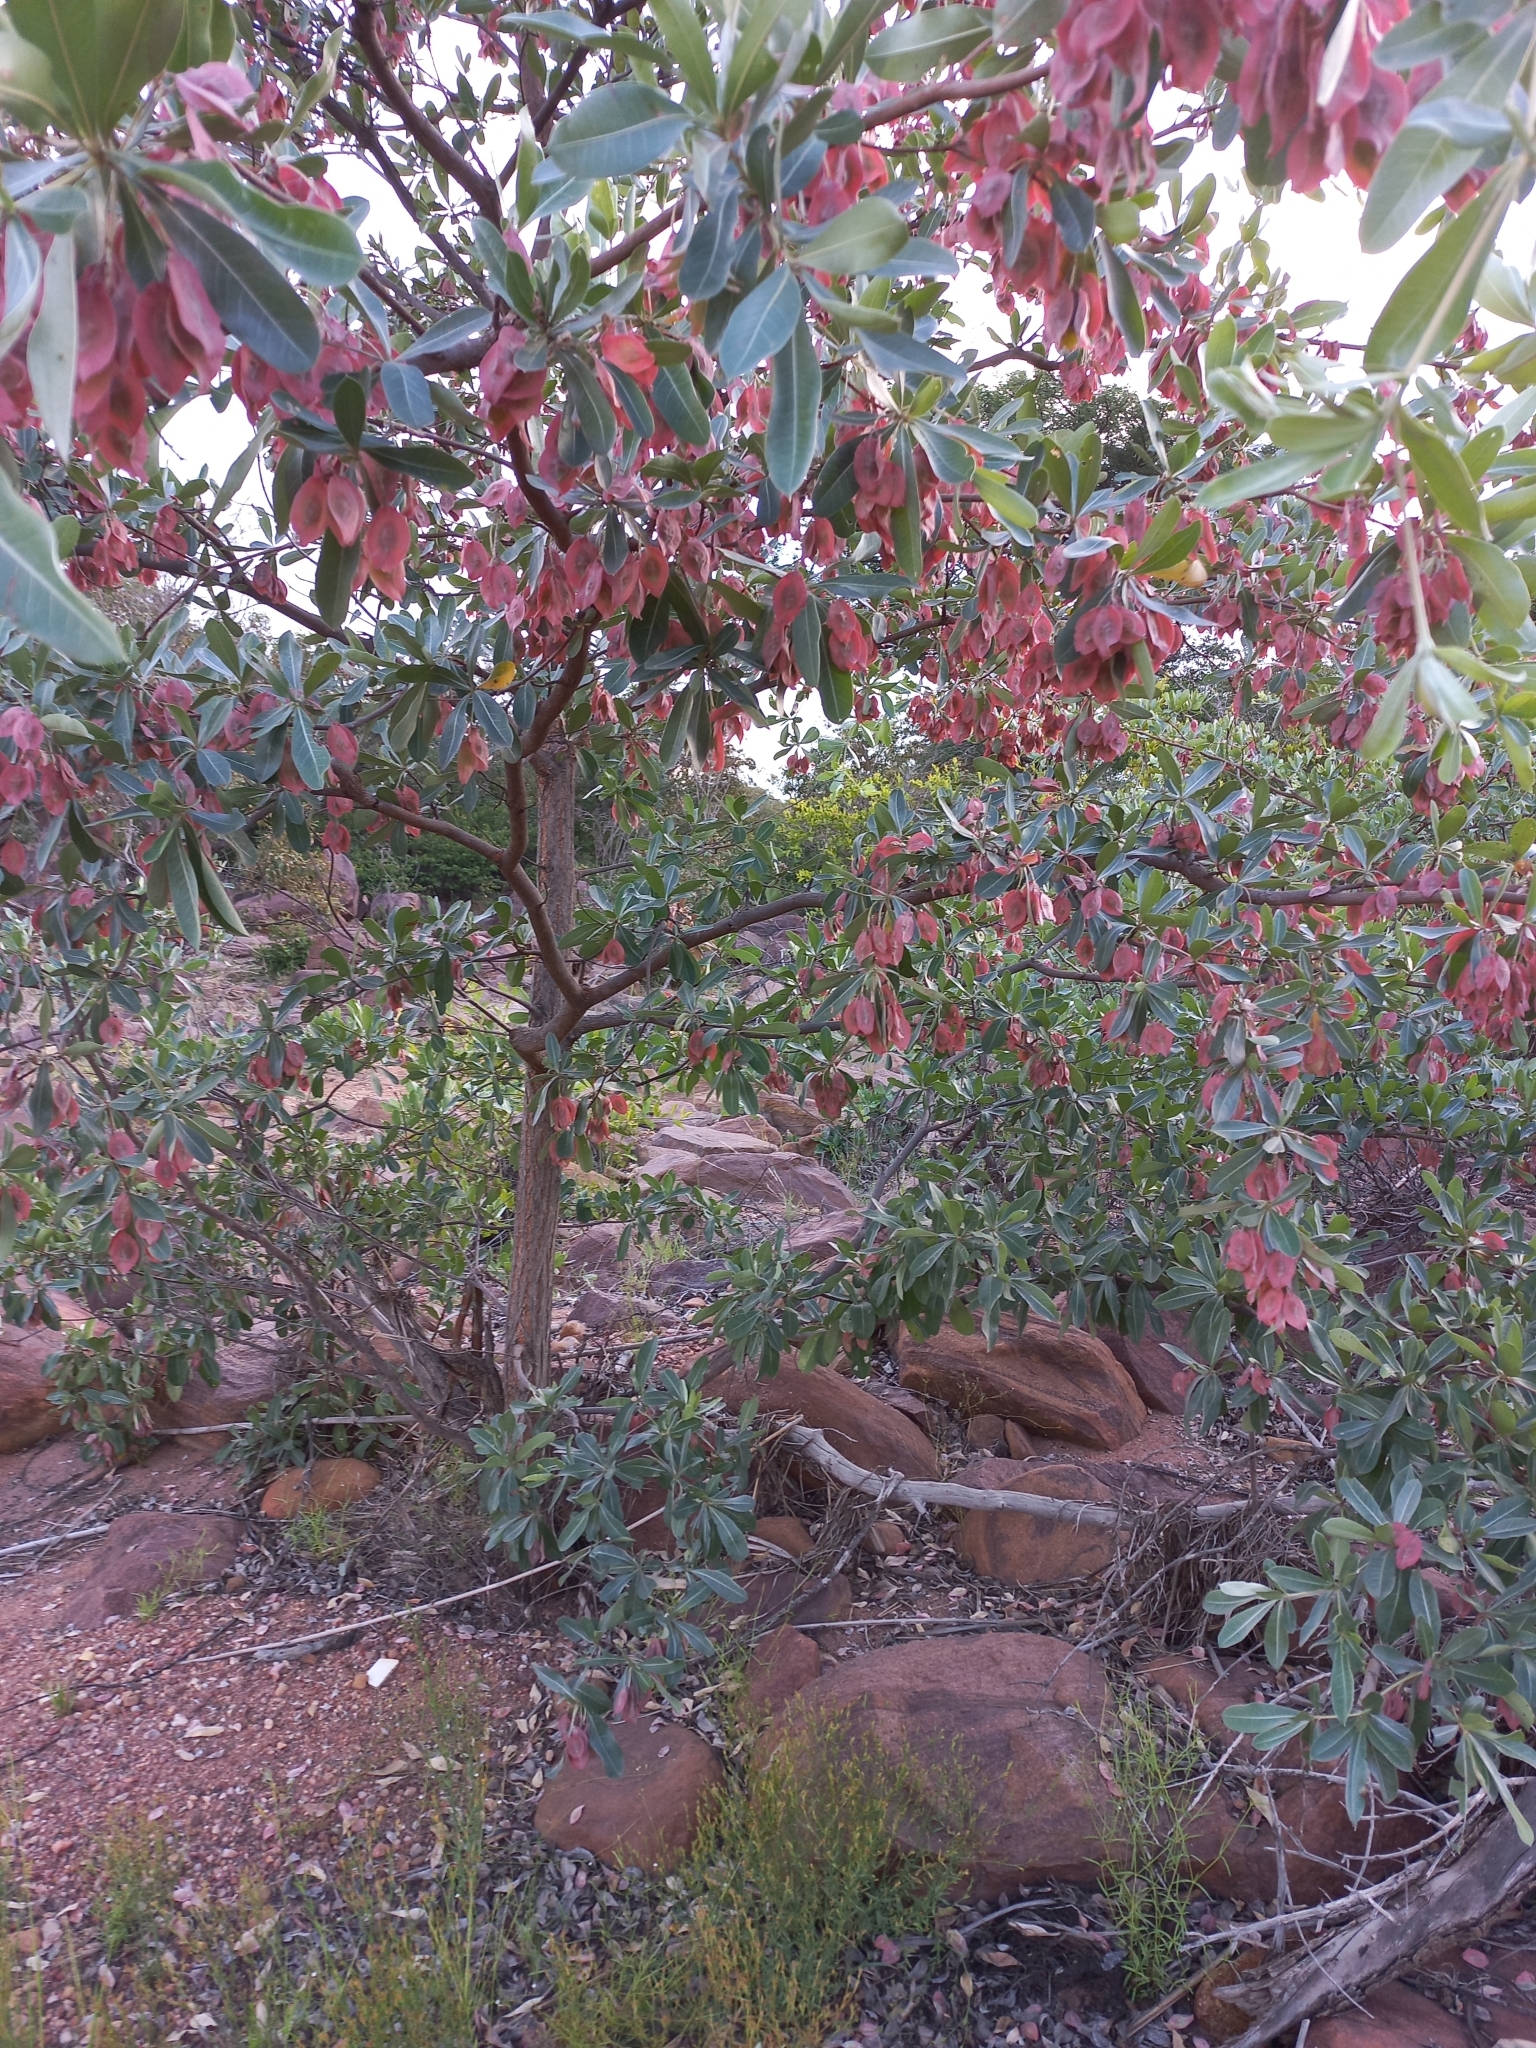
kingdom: Plantae
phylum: Tracheophyta
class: Magnoliopsida
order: Myrtales
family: Combretaceae
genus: Terminalia
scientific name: Terminalia sericea
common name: Clusterleaf
